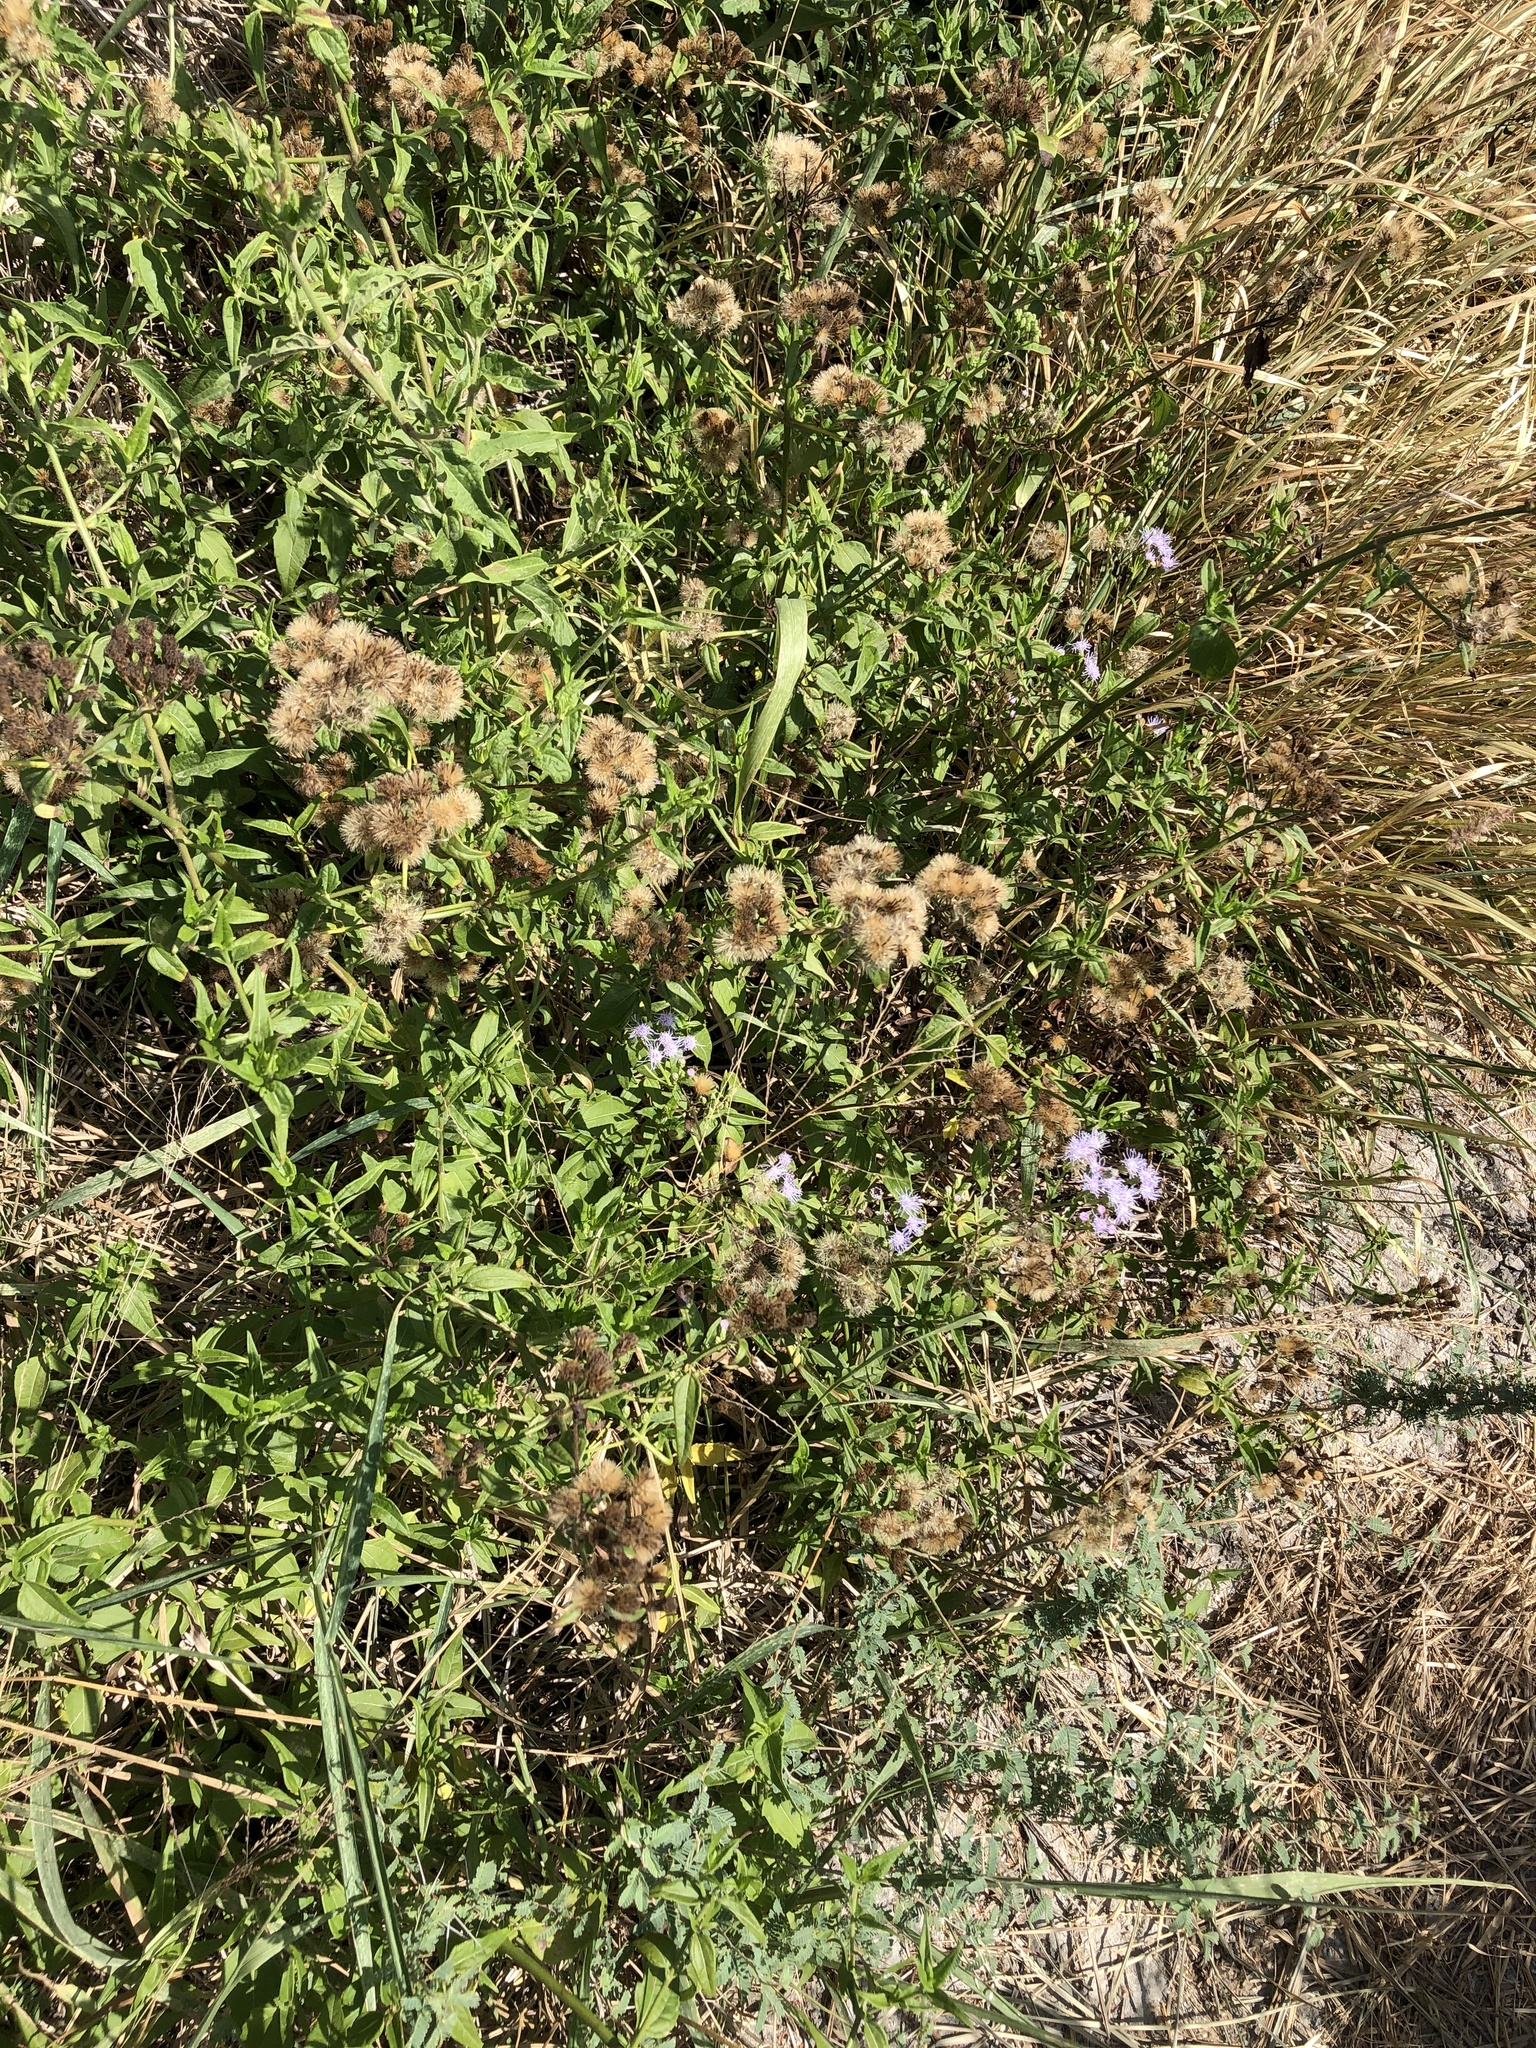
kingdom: Plantae
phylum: Tracheophyta
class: Magnoliopsida
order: Asterales
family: Asteraceae
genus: Chromolaena
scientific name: Chromolaena odorata
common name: Siamweed
